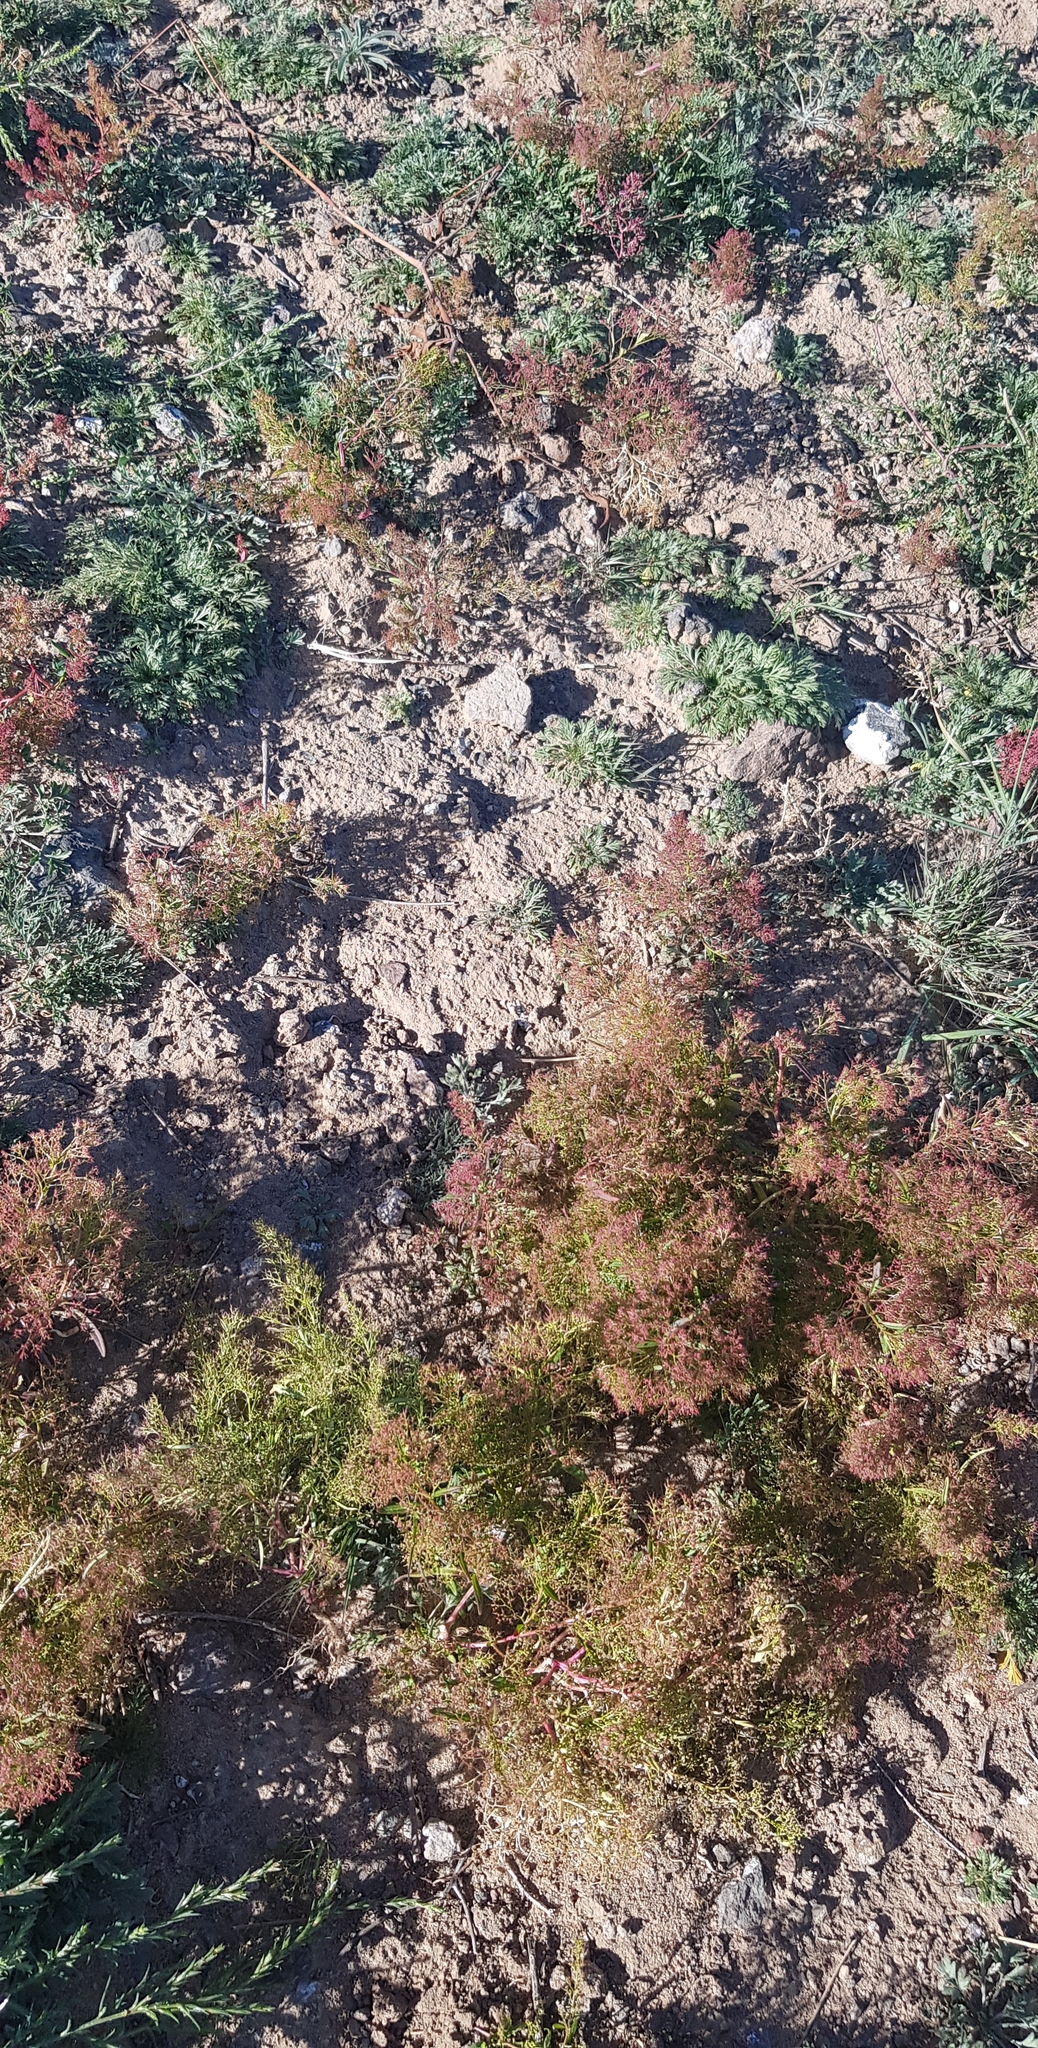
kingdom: Plantae
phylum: Tracheophyta
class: Magnoliopsida
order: Caryophyllales
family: Amaranthaceae
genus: Teloxys
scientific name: Teloxys aristata
